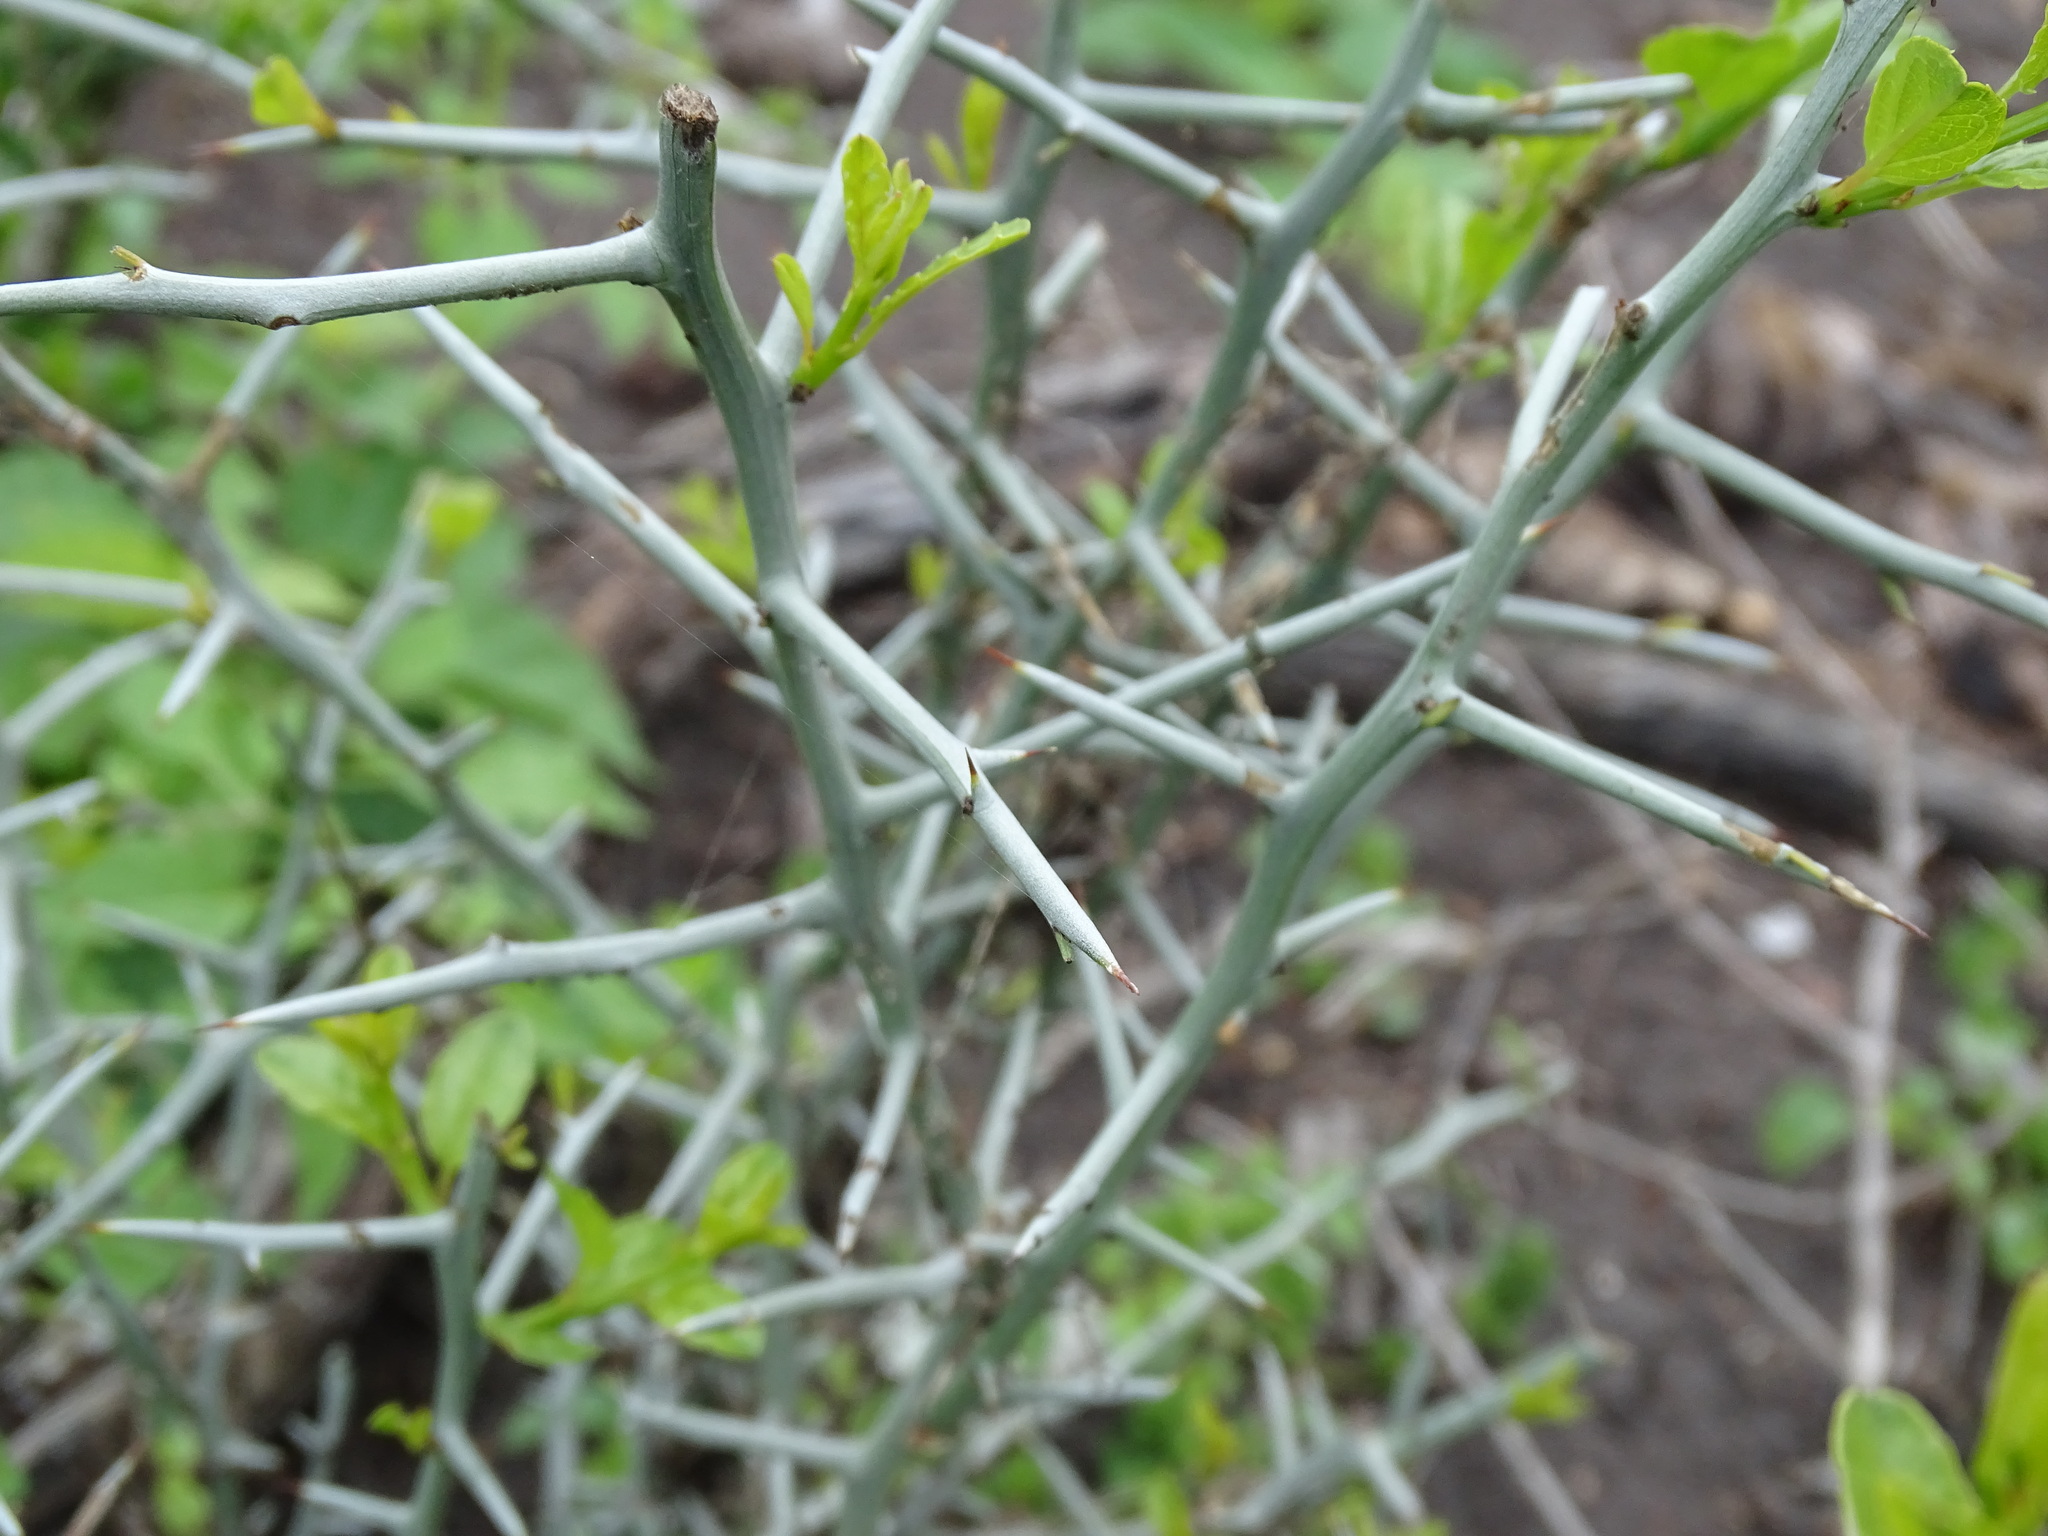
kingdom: Plantae
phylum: Tracheophyta
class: Magnoliopsida
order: Rosales
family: Rhamnaceae
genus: Sarcomphalus
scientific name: Sarcomphalus obtusifolius
